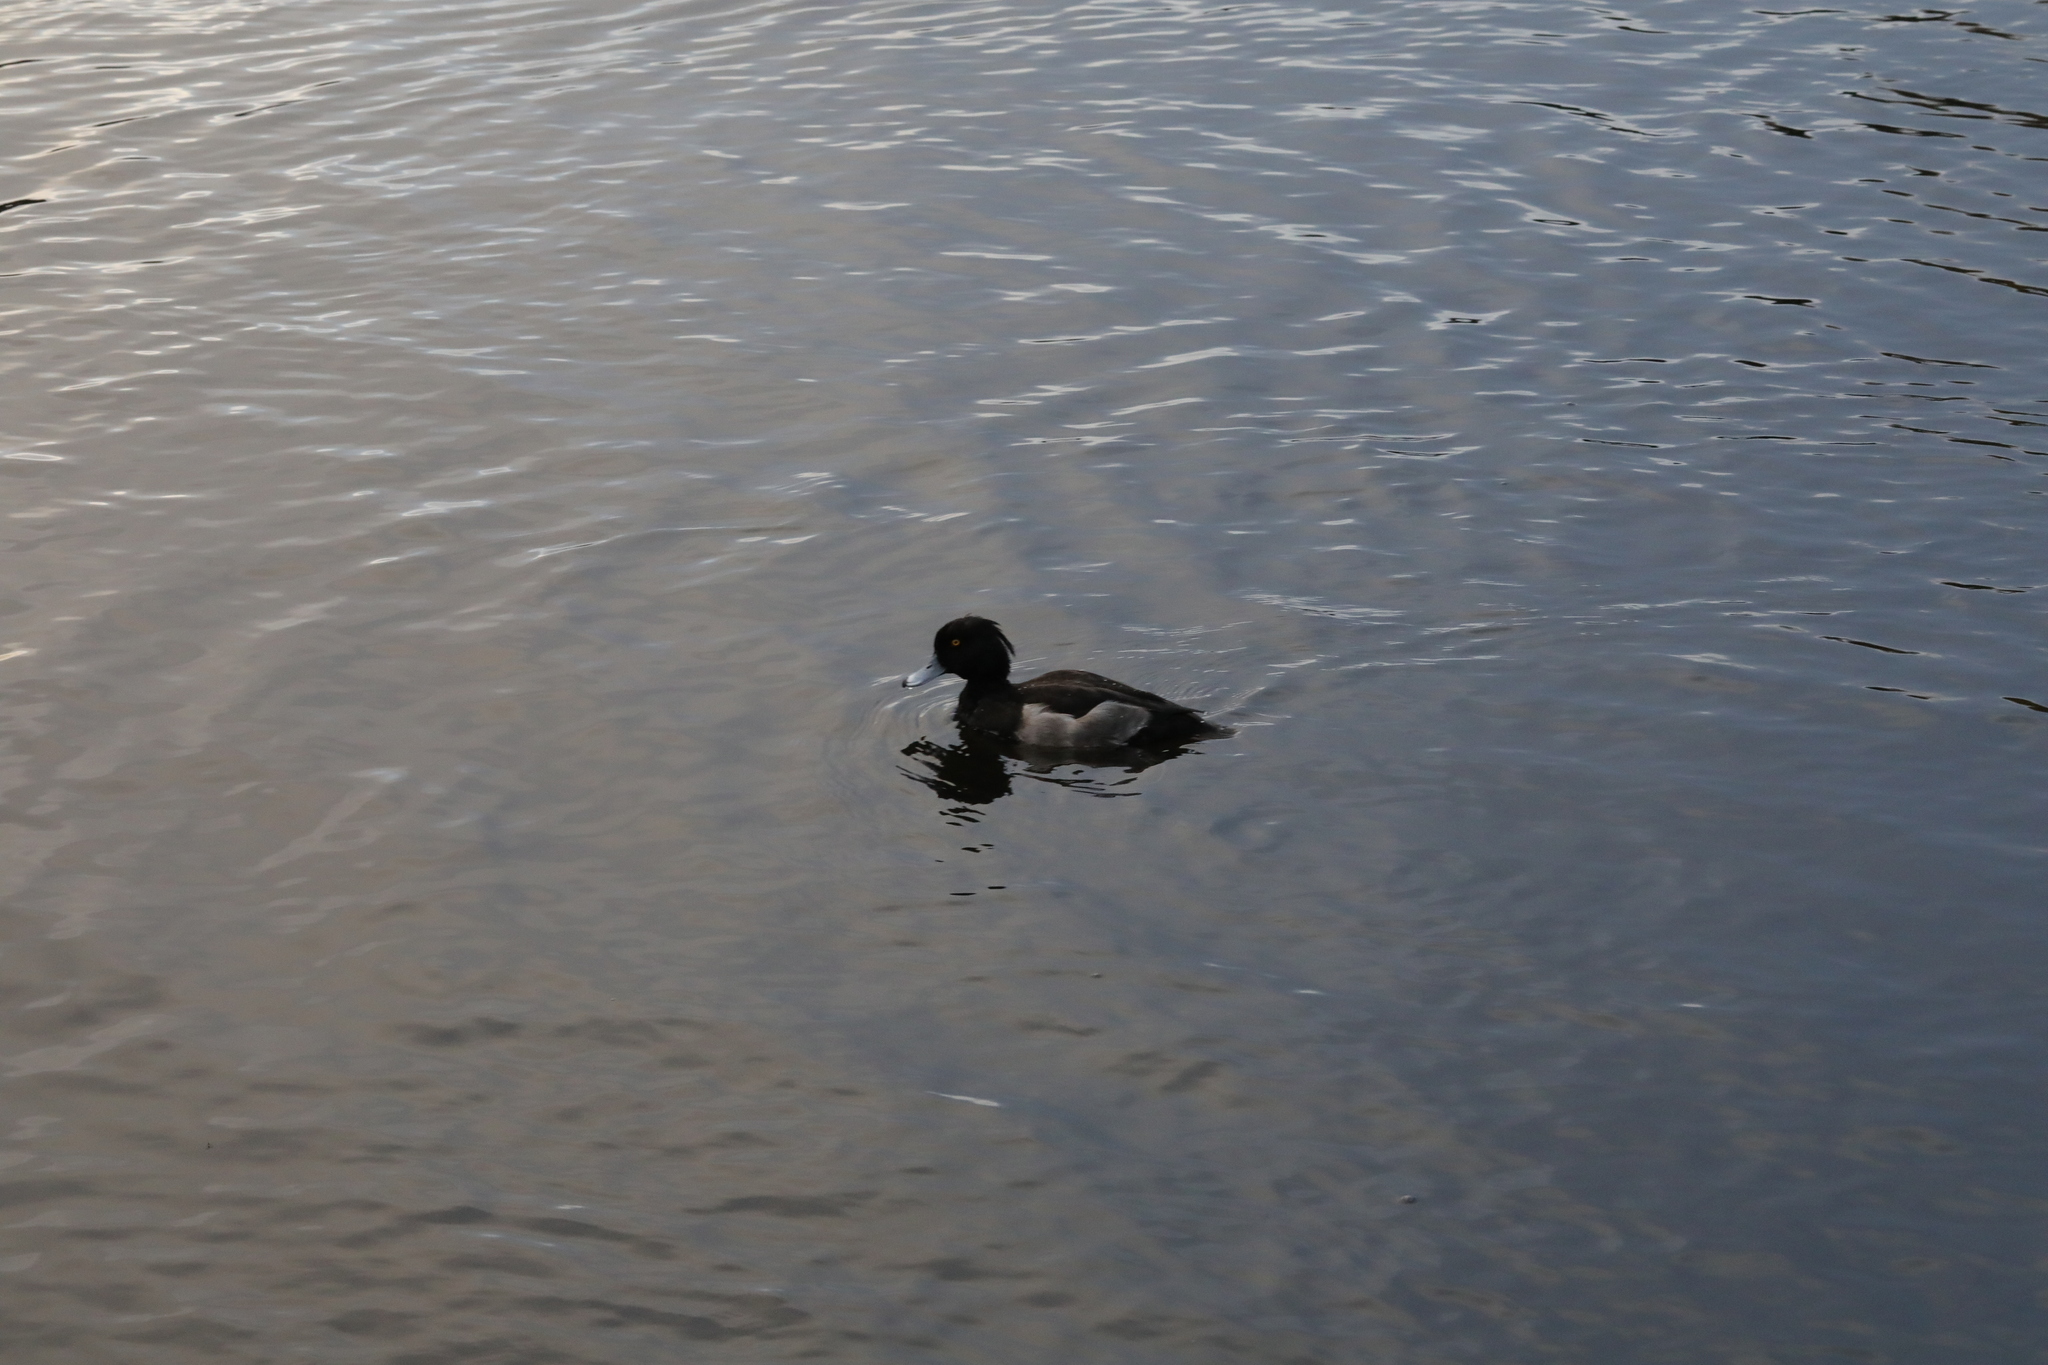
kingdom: Animalia
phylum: Chordata
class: Aves
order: Anseriformes
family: Anatidae
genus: Aythya
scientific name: Aythya fuligula
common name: Tufted duck
